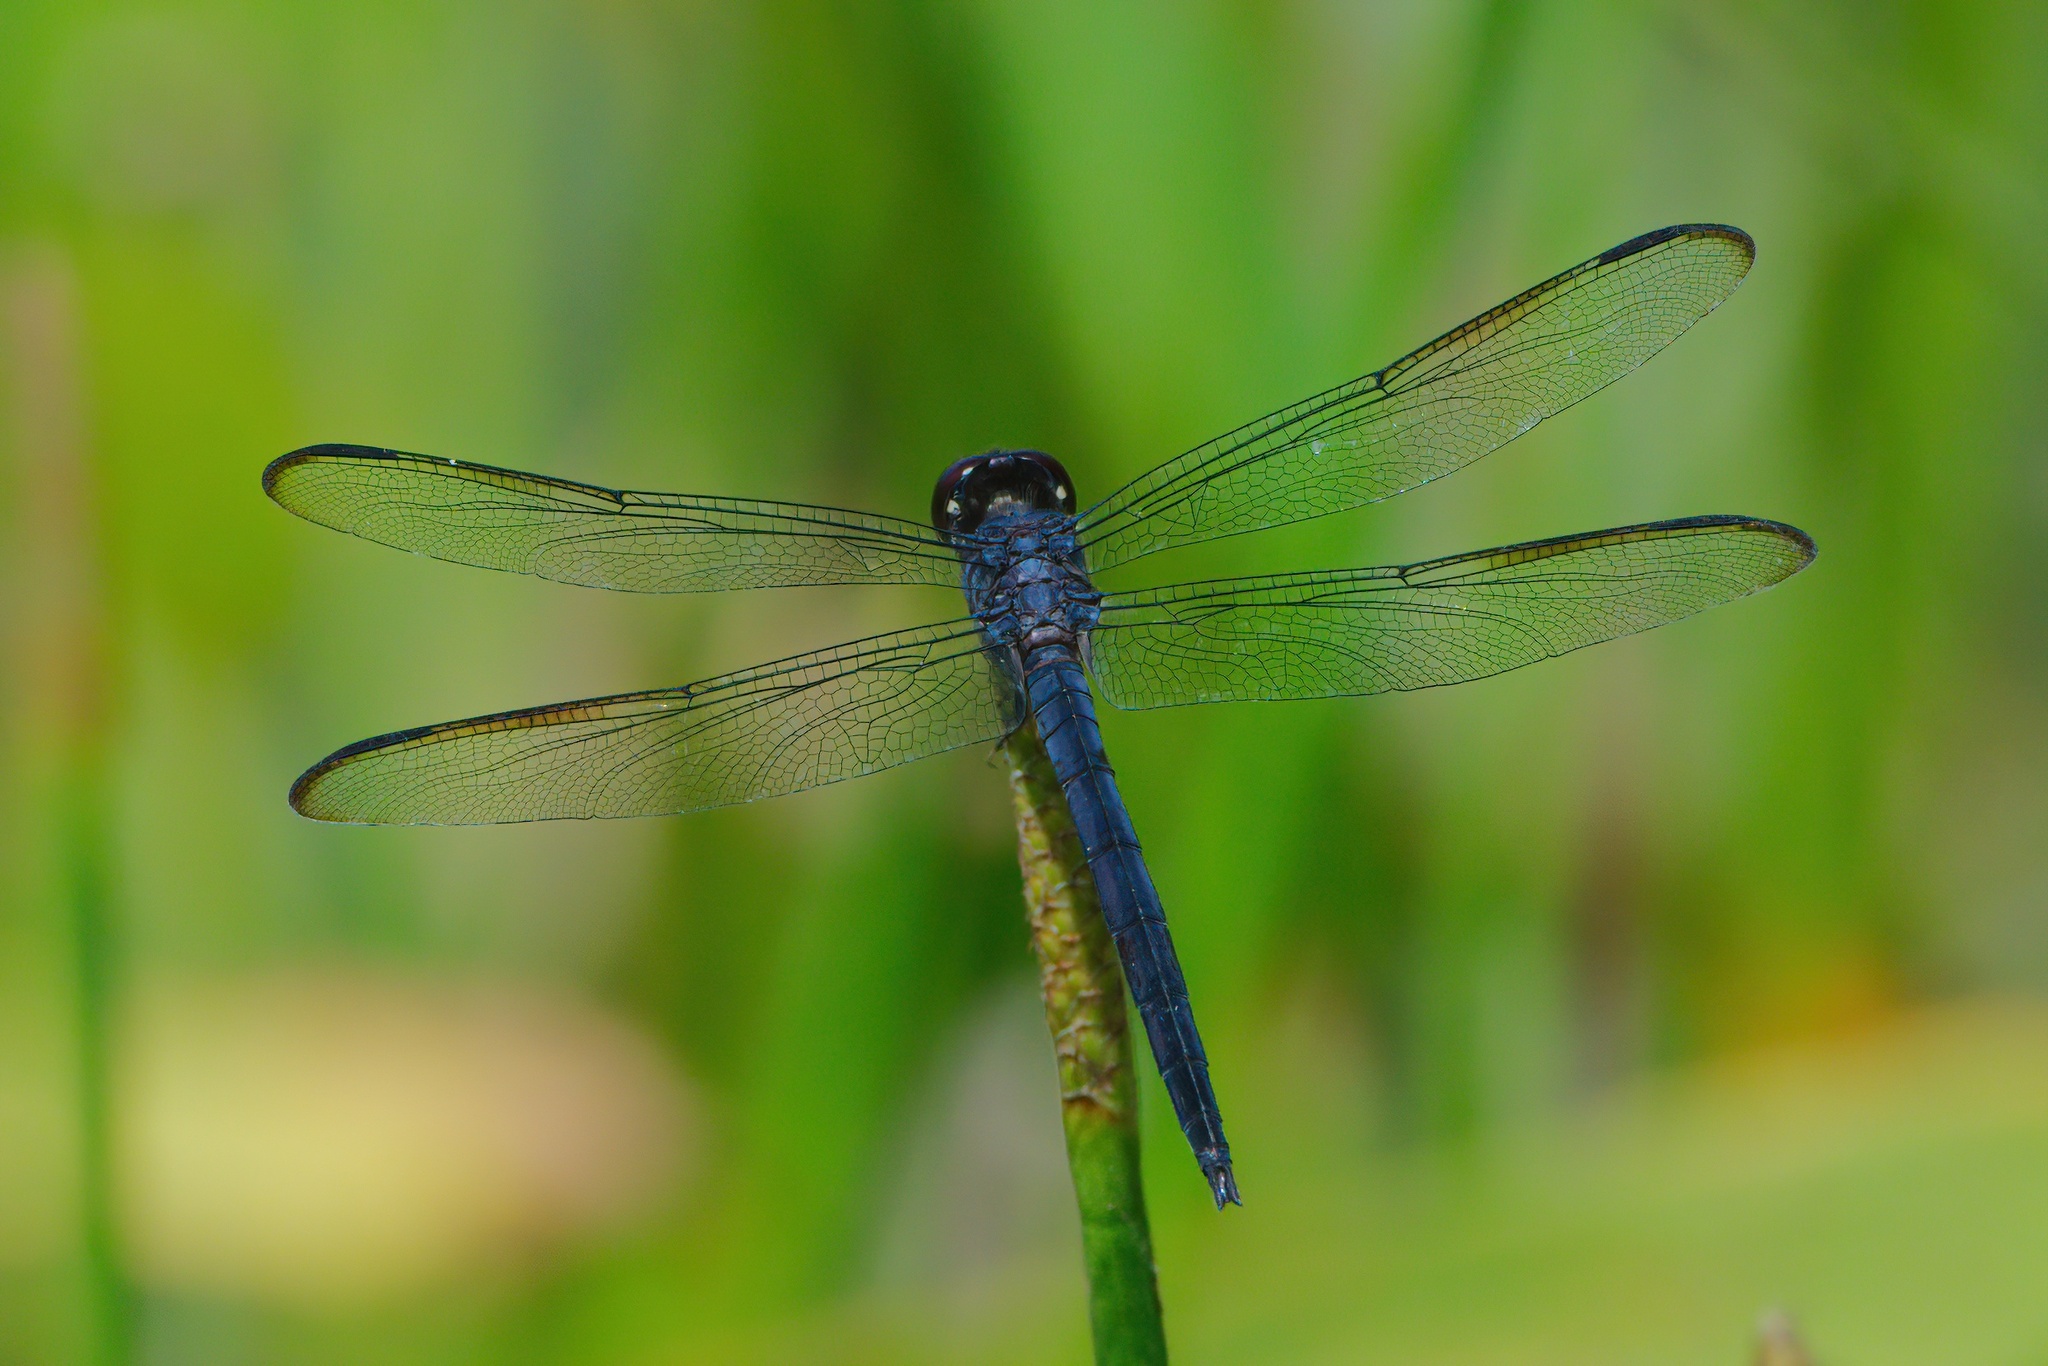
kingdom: Animalia
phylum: Arthropoda
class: Insecta
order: Odonata
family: Libellulidae
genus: Libellula
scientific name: Libellula incesta
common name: Slaty skimmer
